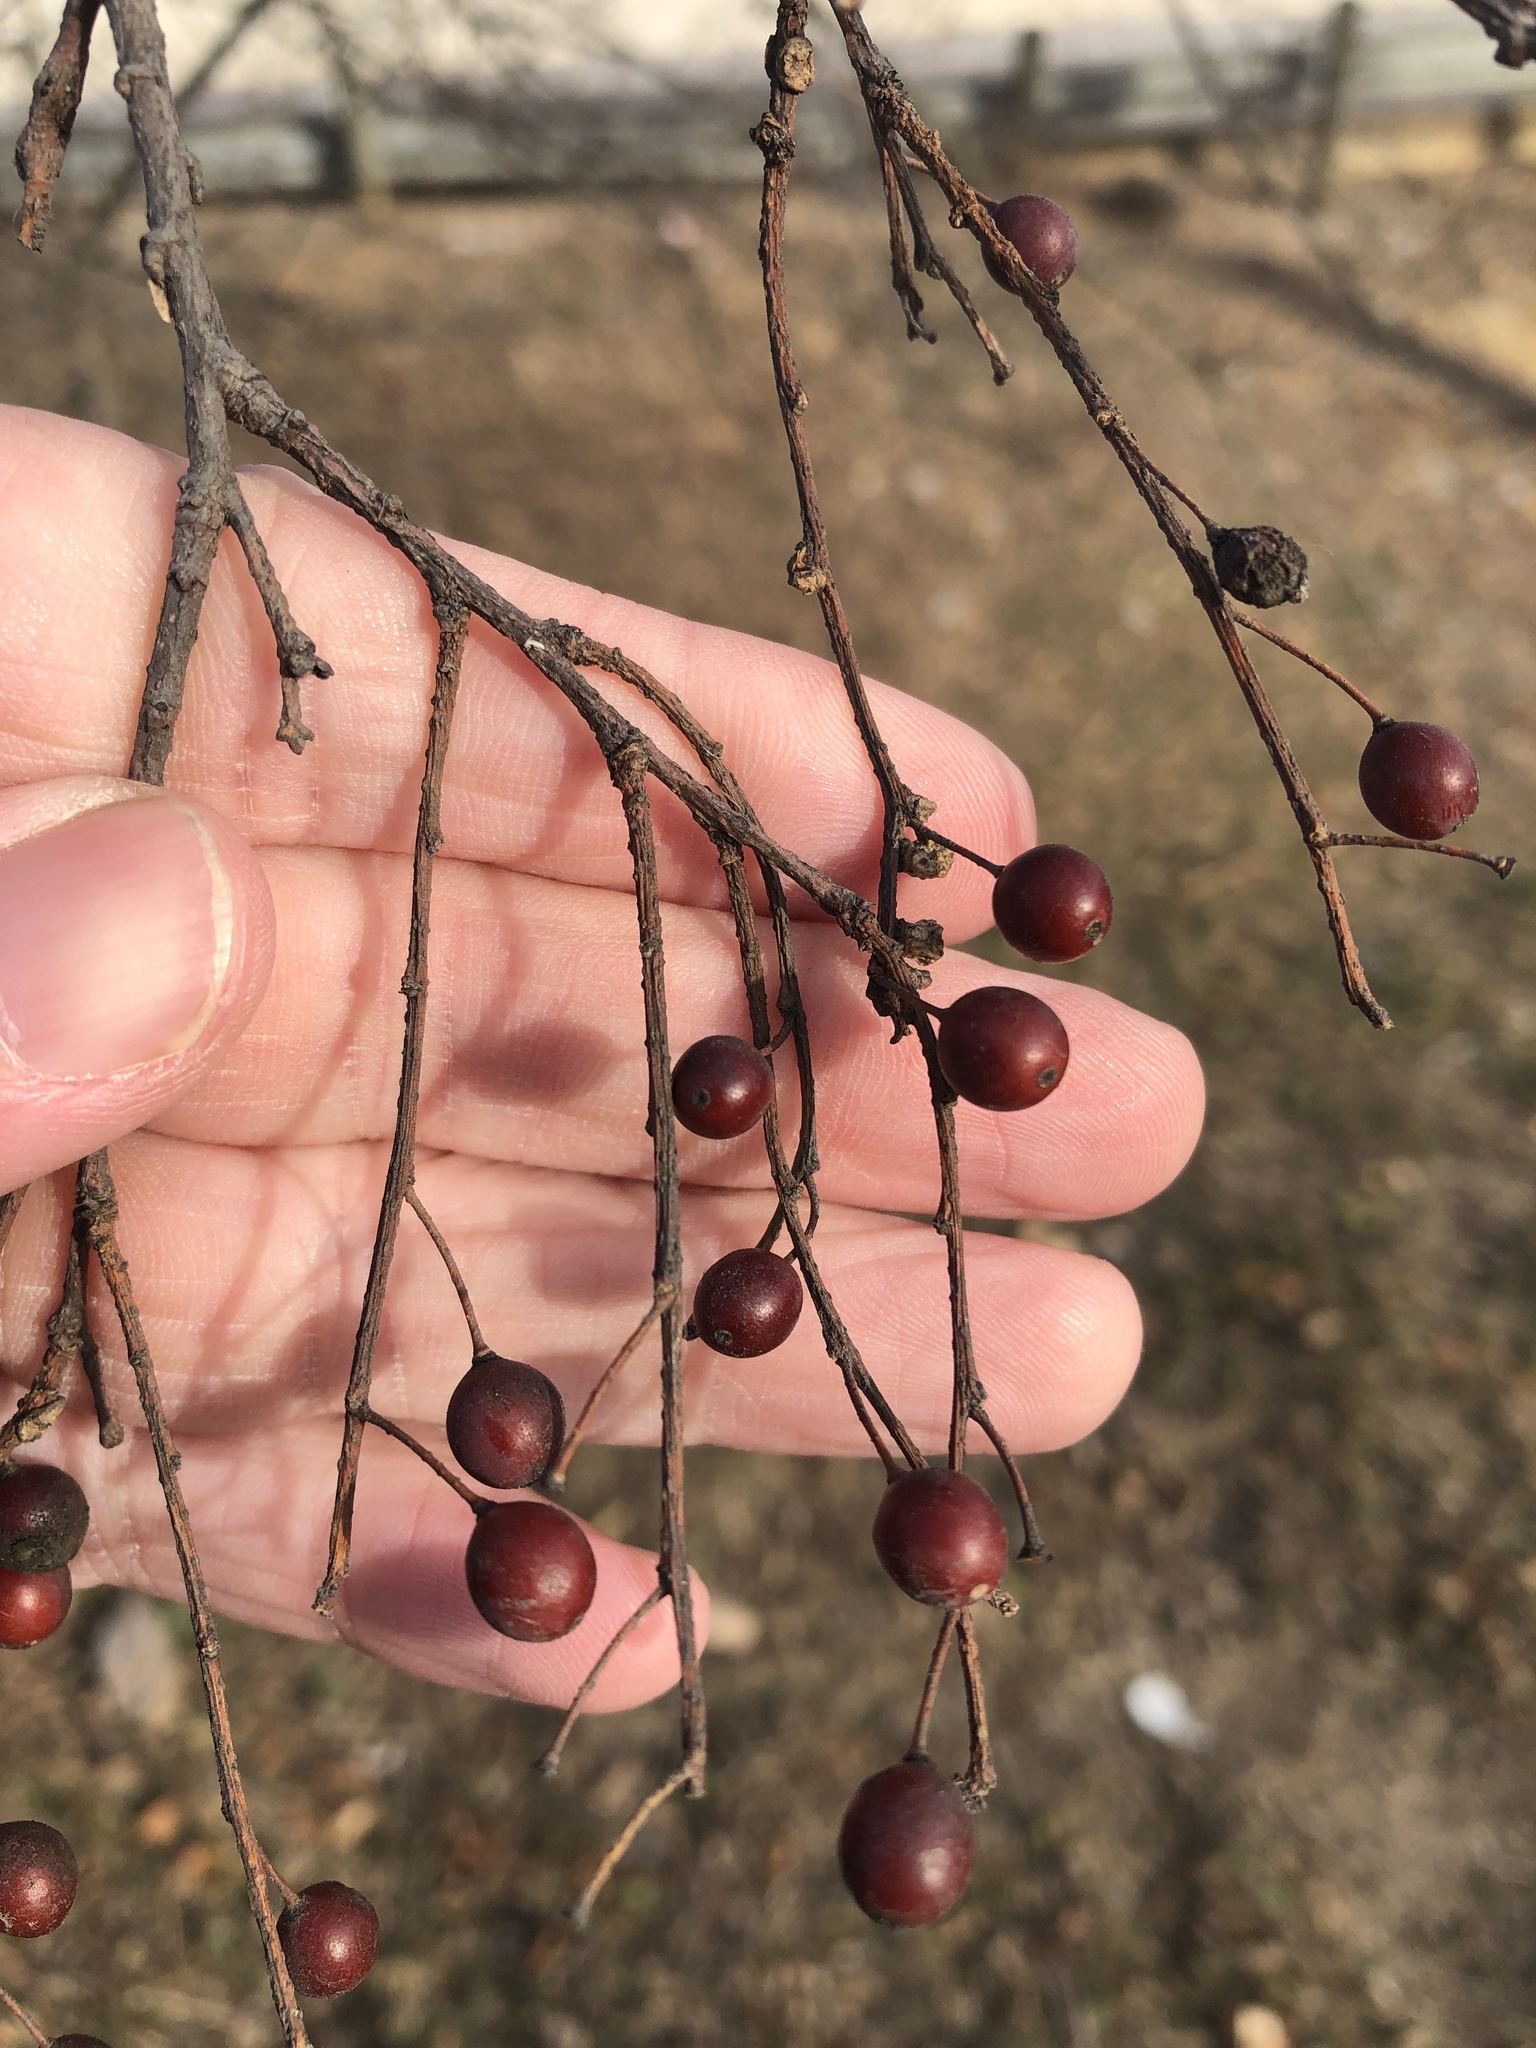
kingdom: Plantae
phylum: Tracheophyta
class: Magnoliopsida
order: Rosales
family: Cannabaceae
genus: Celtis
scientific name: Celtis laevigata
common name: Sugarberry
